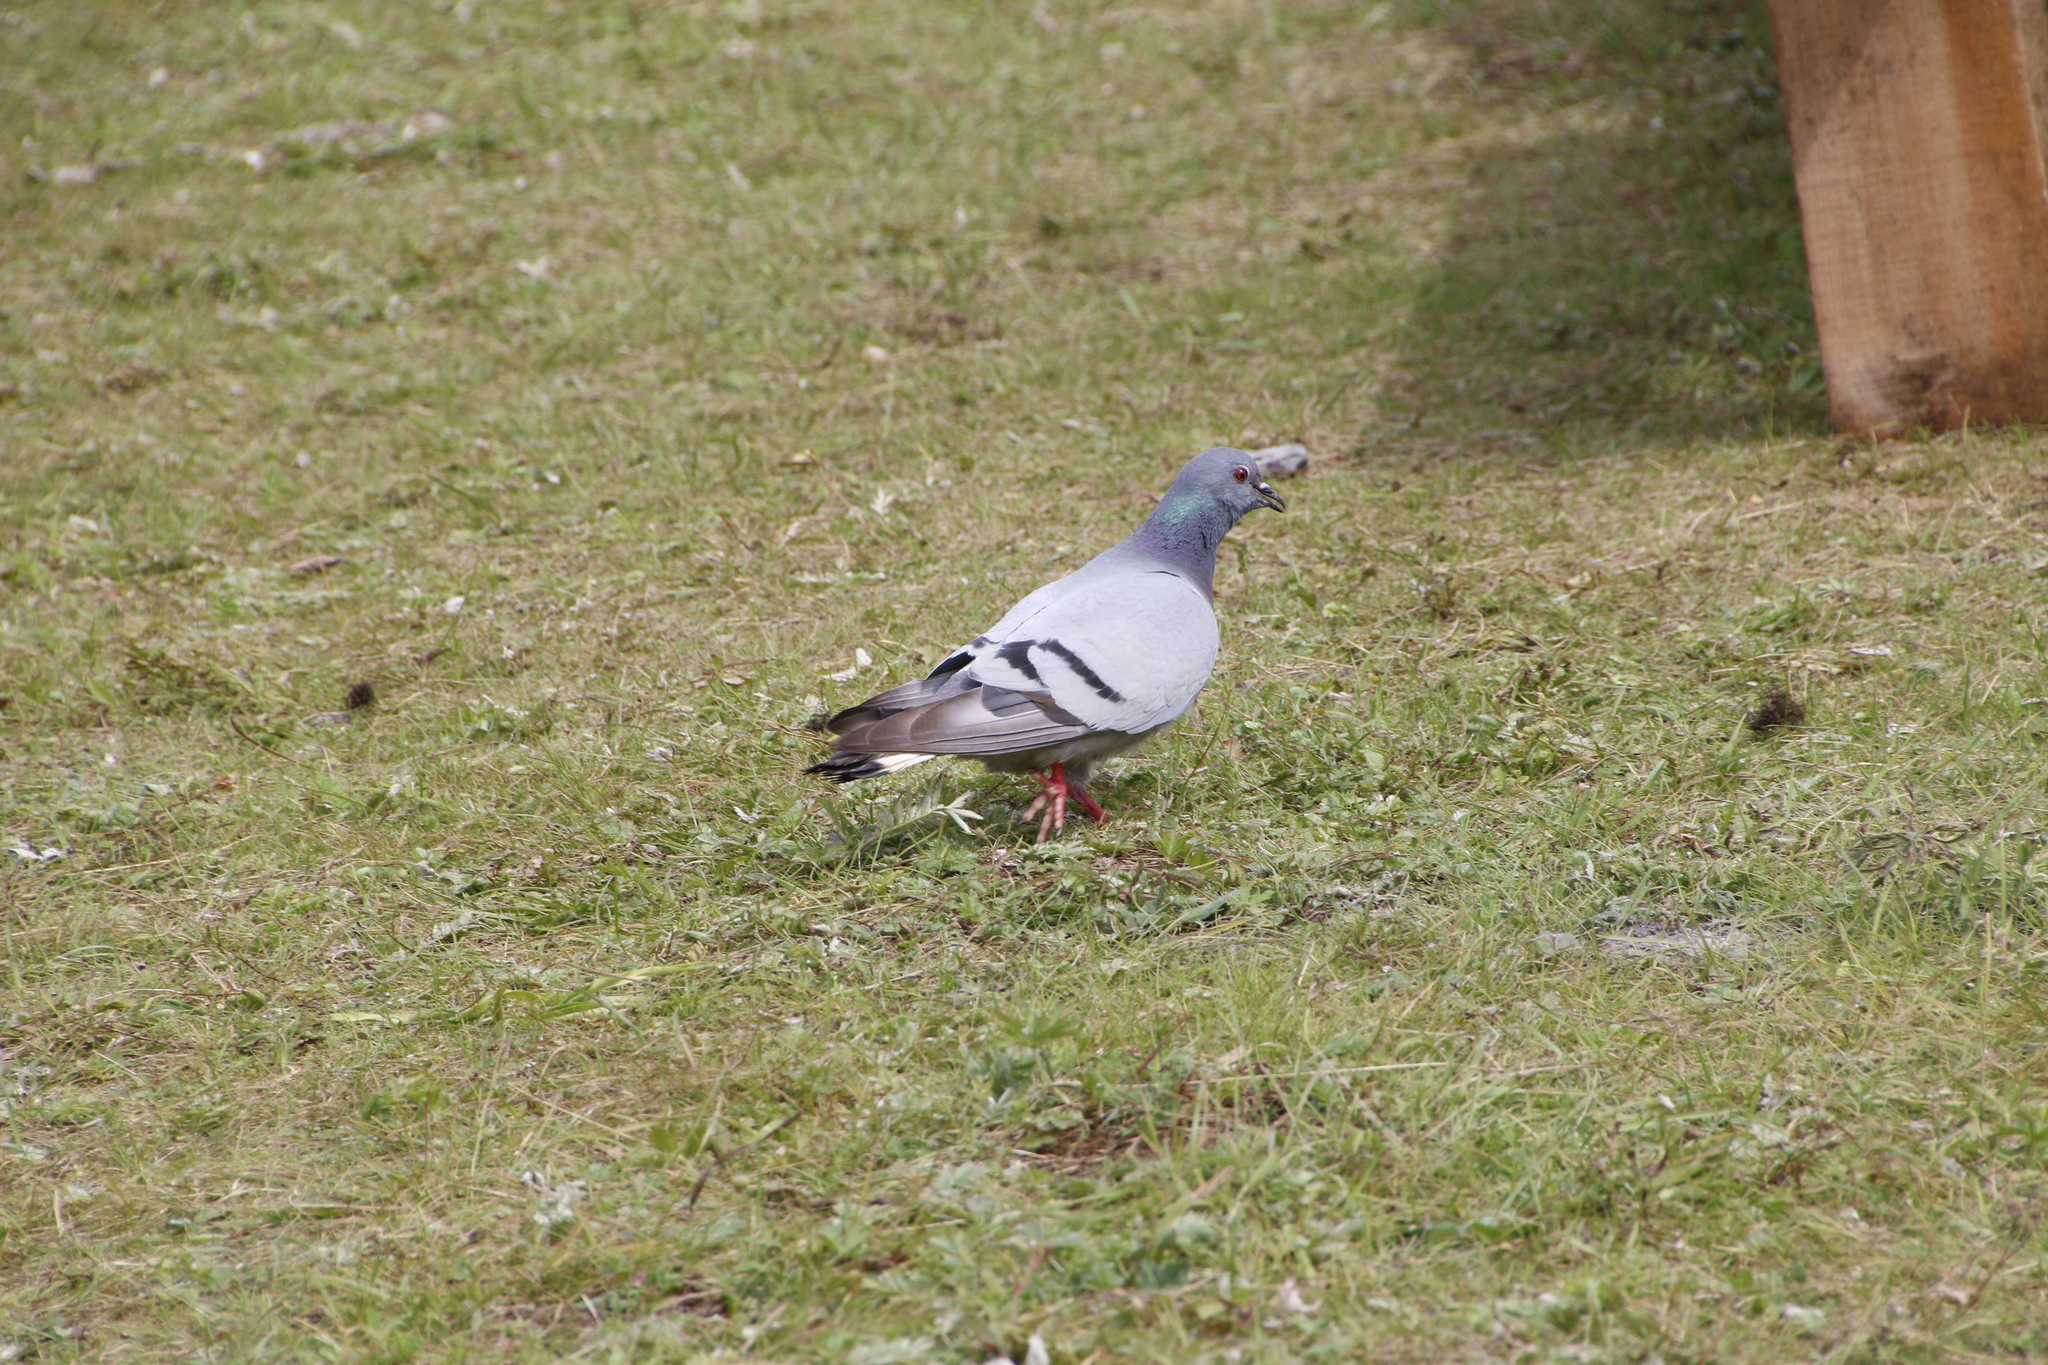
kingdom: Animalia
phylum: Chordata
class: Aves
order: Columbiformes
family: Columbidae
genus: Columba
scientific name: Columba rupestris
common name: Hill pigeon
